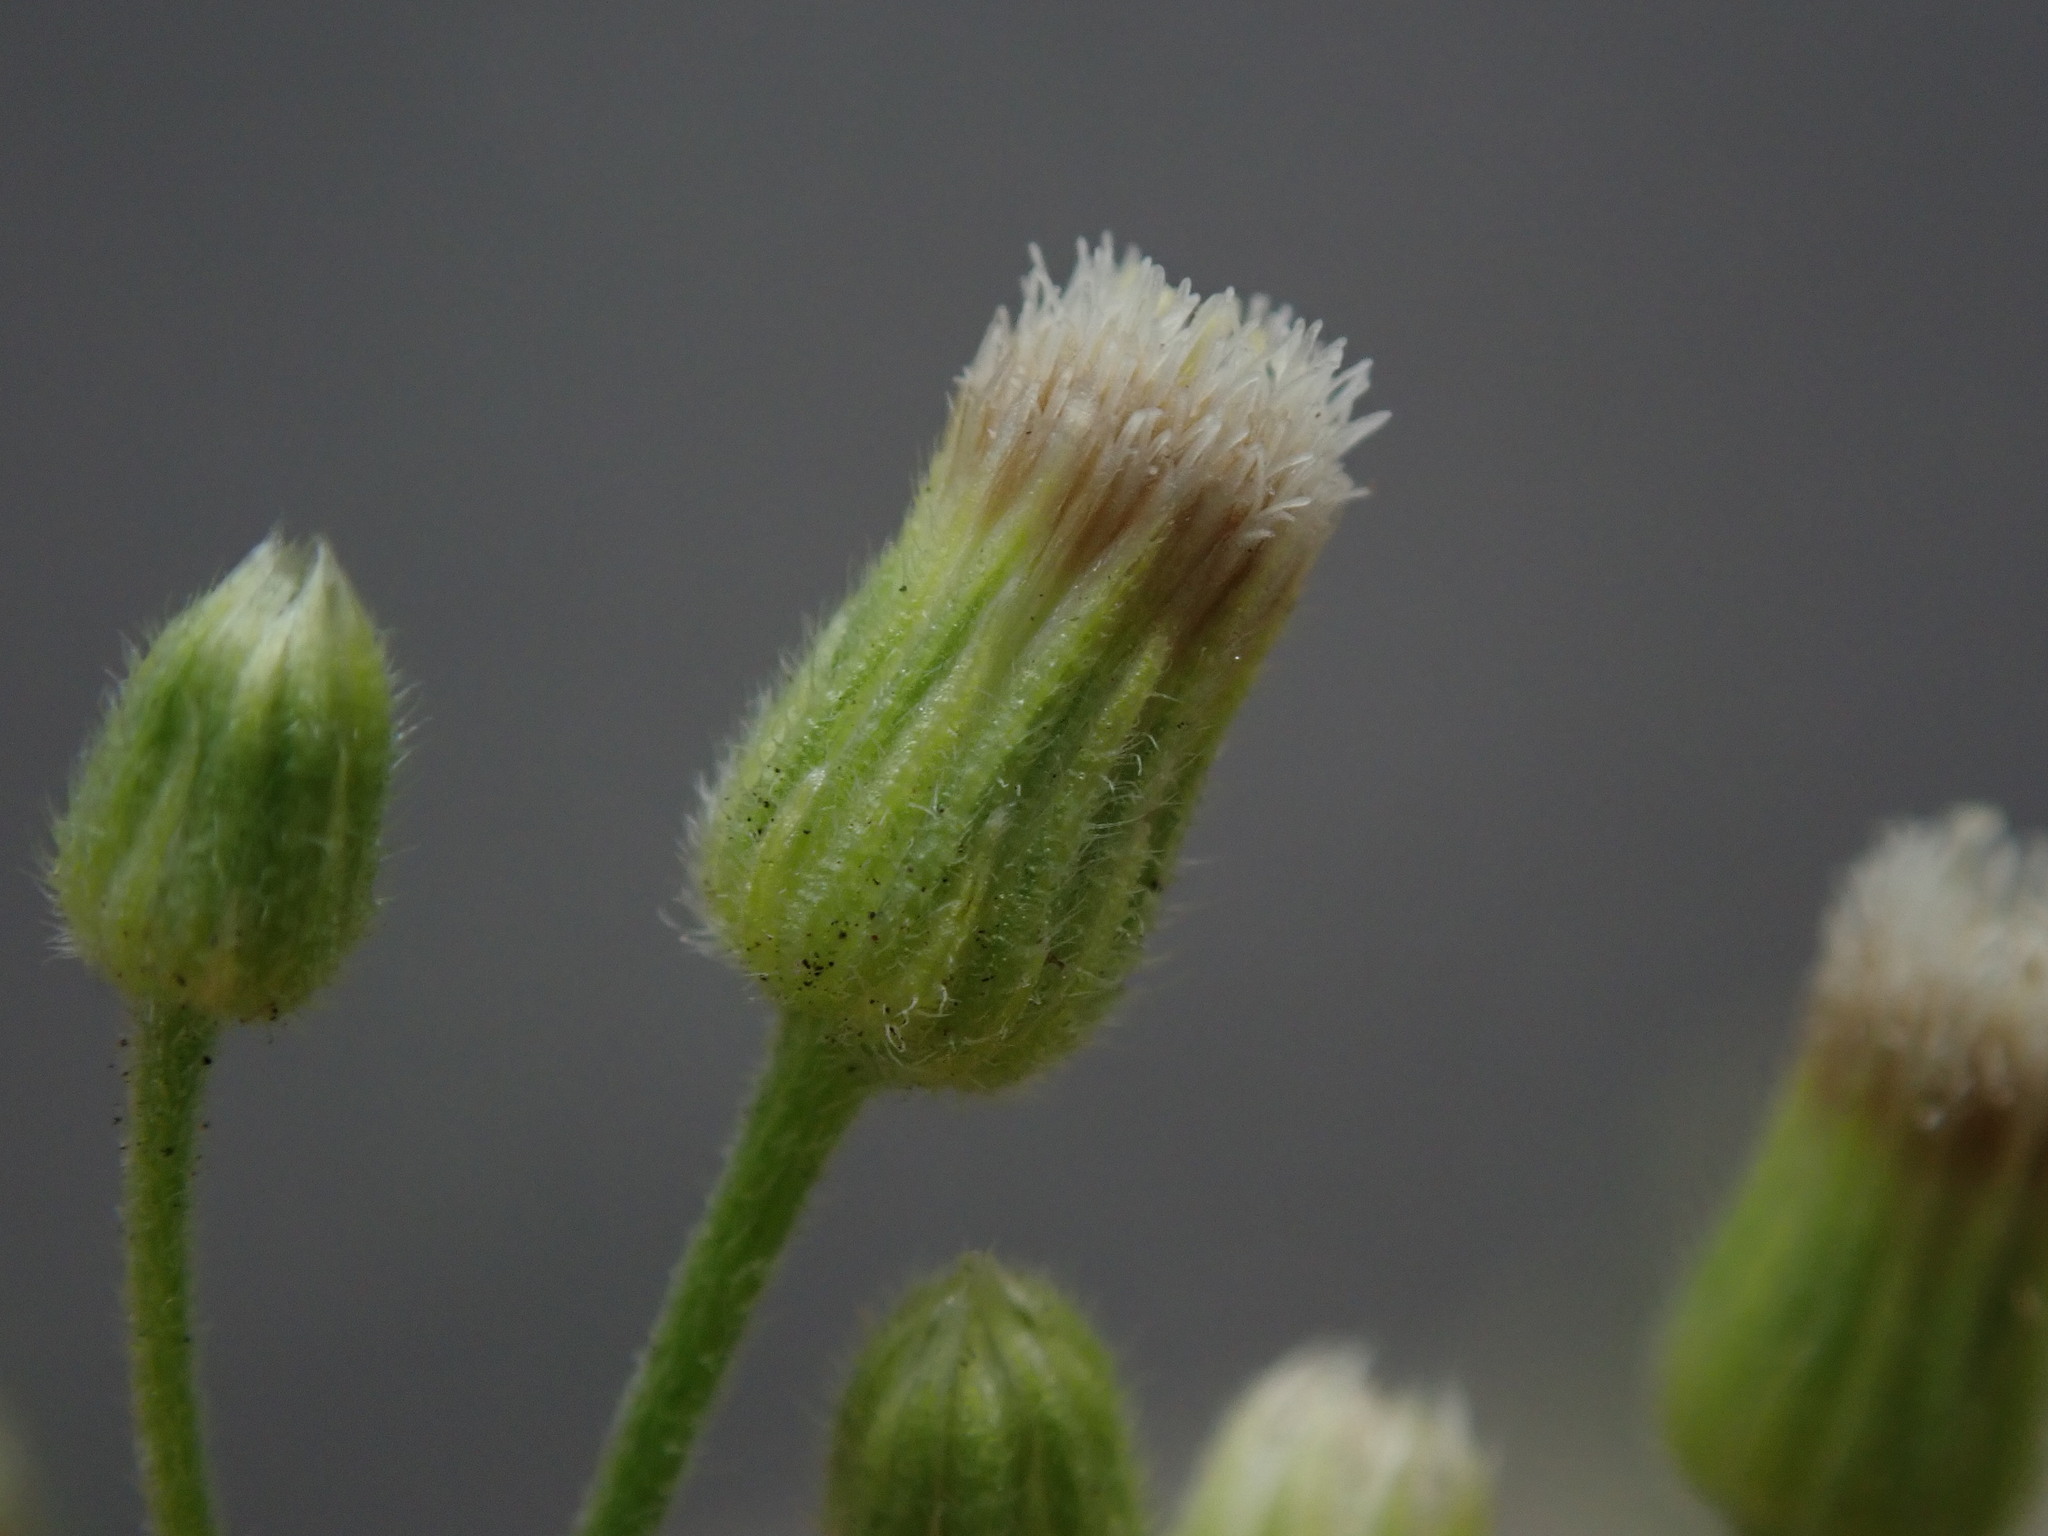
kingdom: Plantae
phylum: Tracheophyta
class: Magnoliopsida
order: Asterales
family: Asteraceae
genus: Erigeron
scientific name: Erigeron sumatrensis
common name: Daisy
